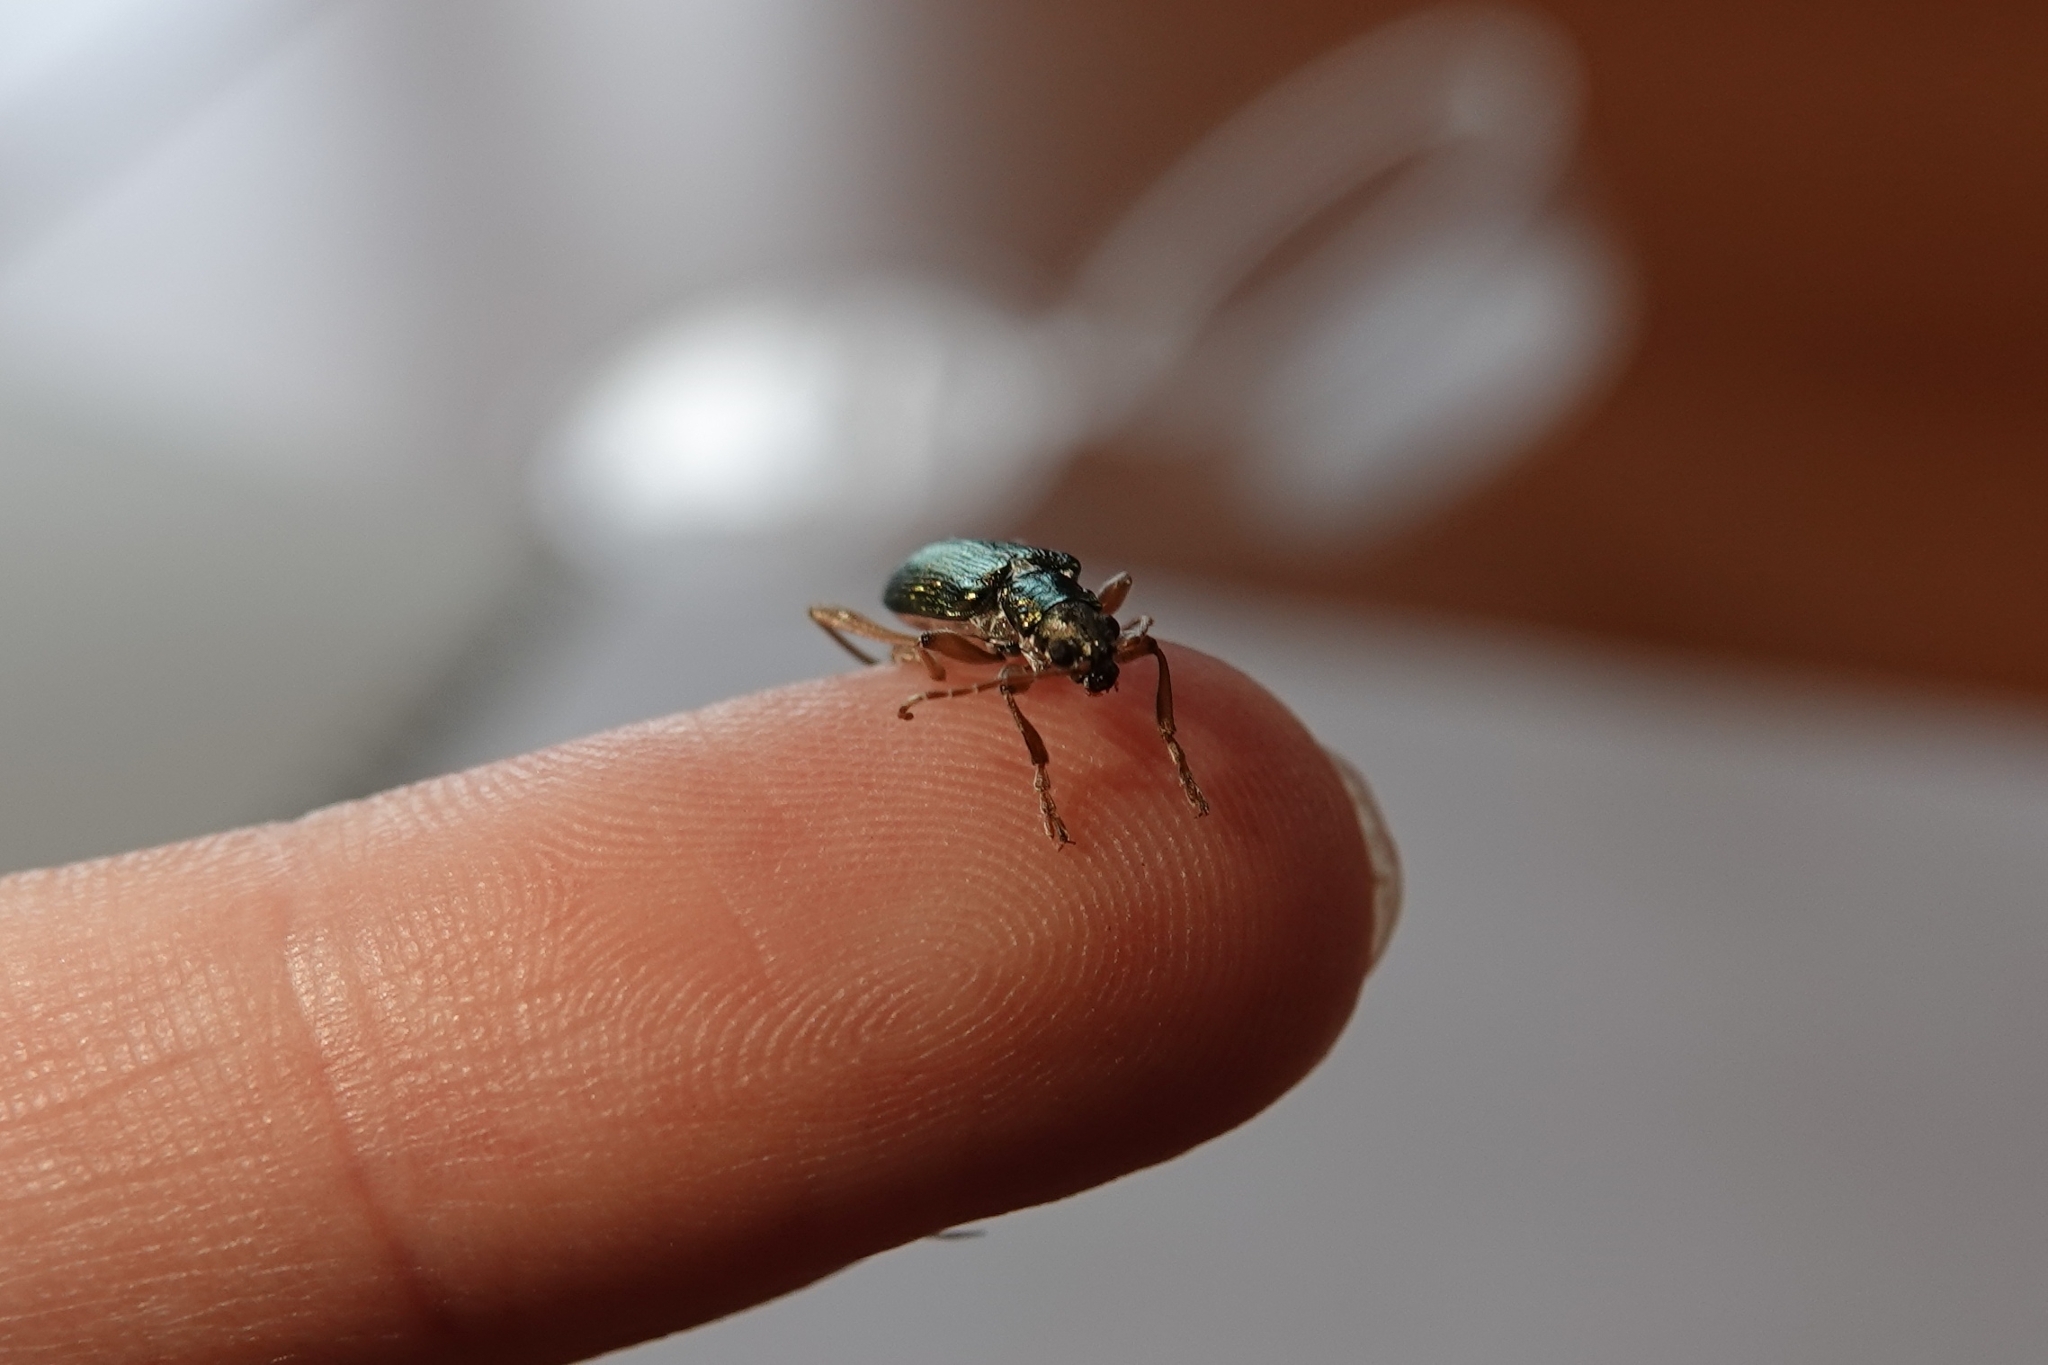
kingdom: Animalia
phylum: Arthropoda
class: Insecta
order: Coleoptera
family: Chrysomelidae
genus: Donacia
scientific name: Donacia clavipes
